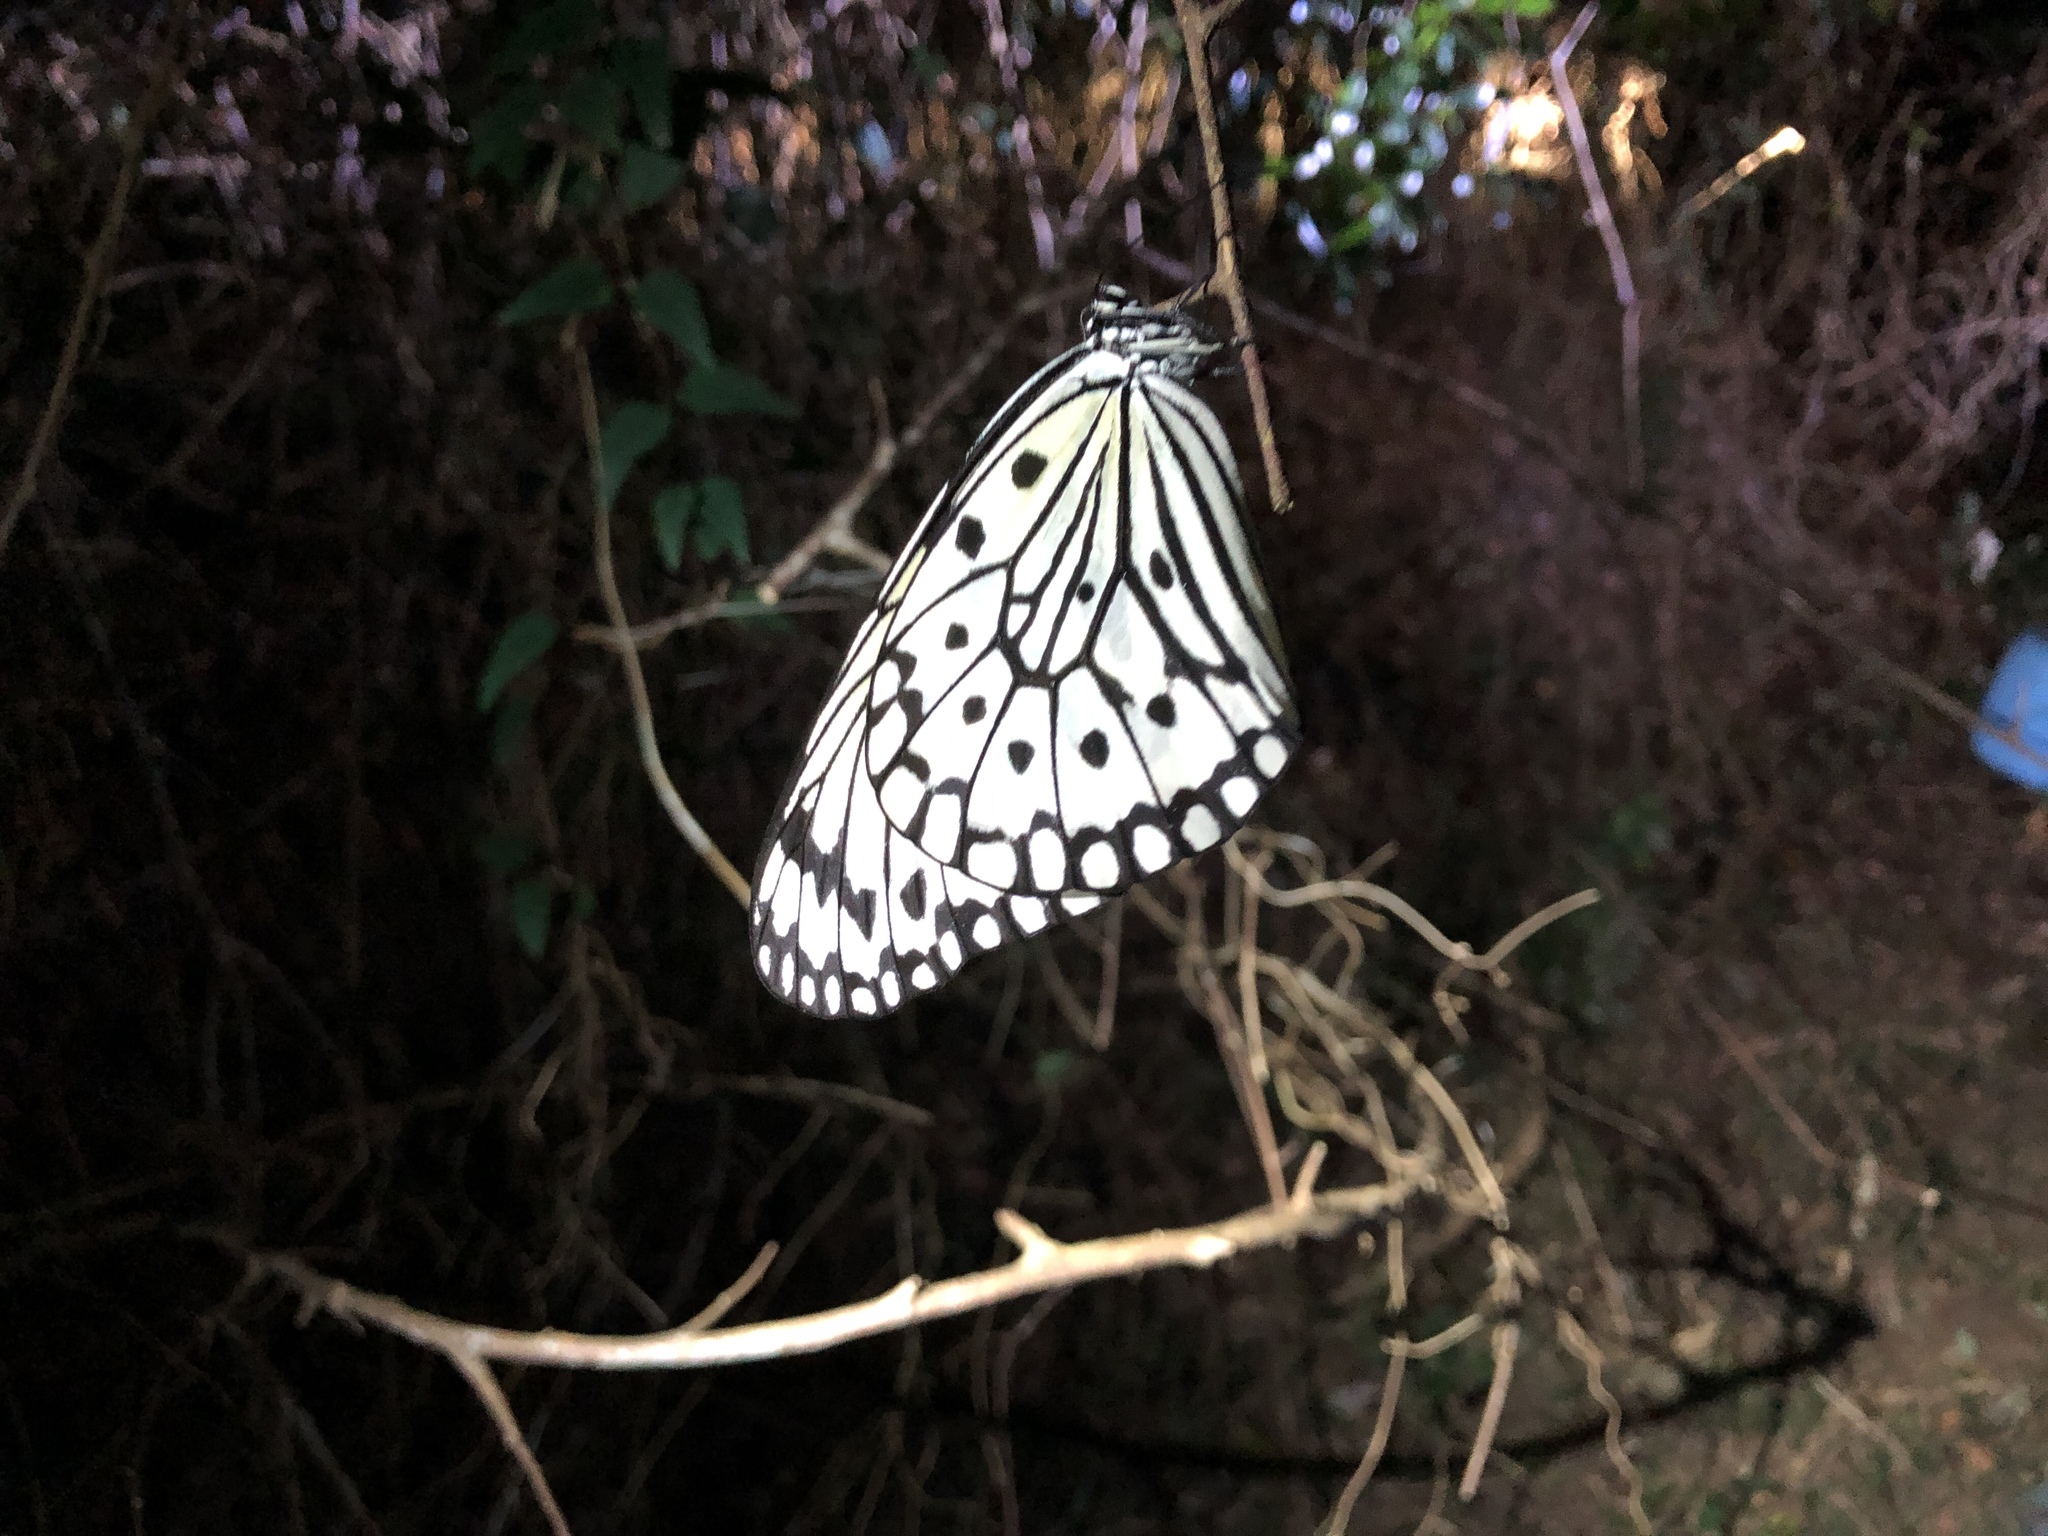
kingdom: Animalia
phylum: Arthropoda
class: Insecta
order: Lepidoptera
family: Nymphalidae
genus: Idea
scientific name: Idea leuconoe
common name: Rice paper butterfly
